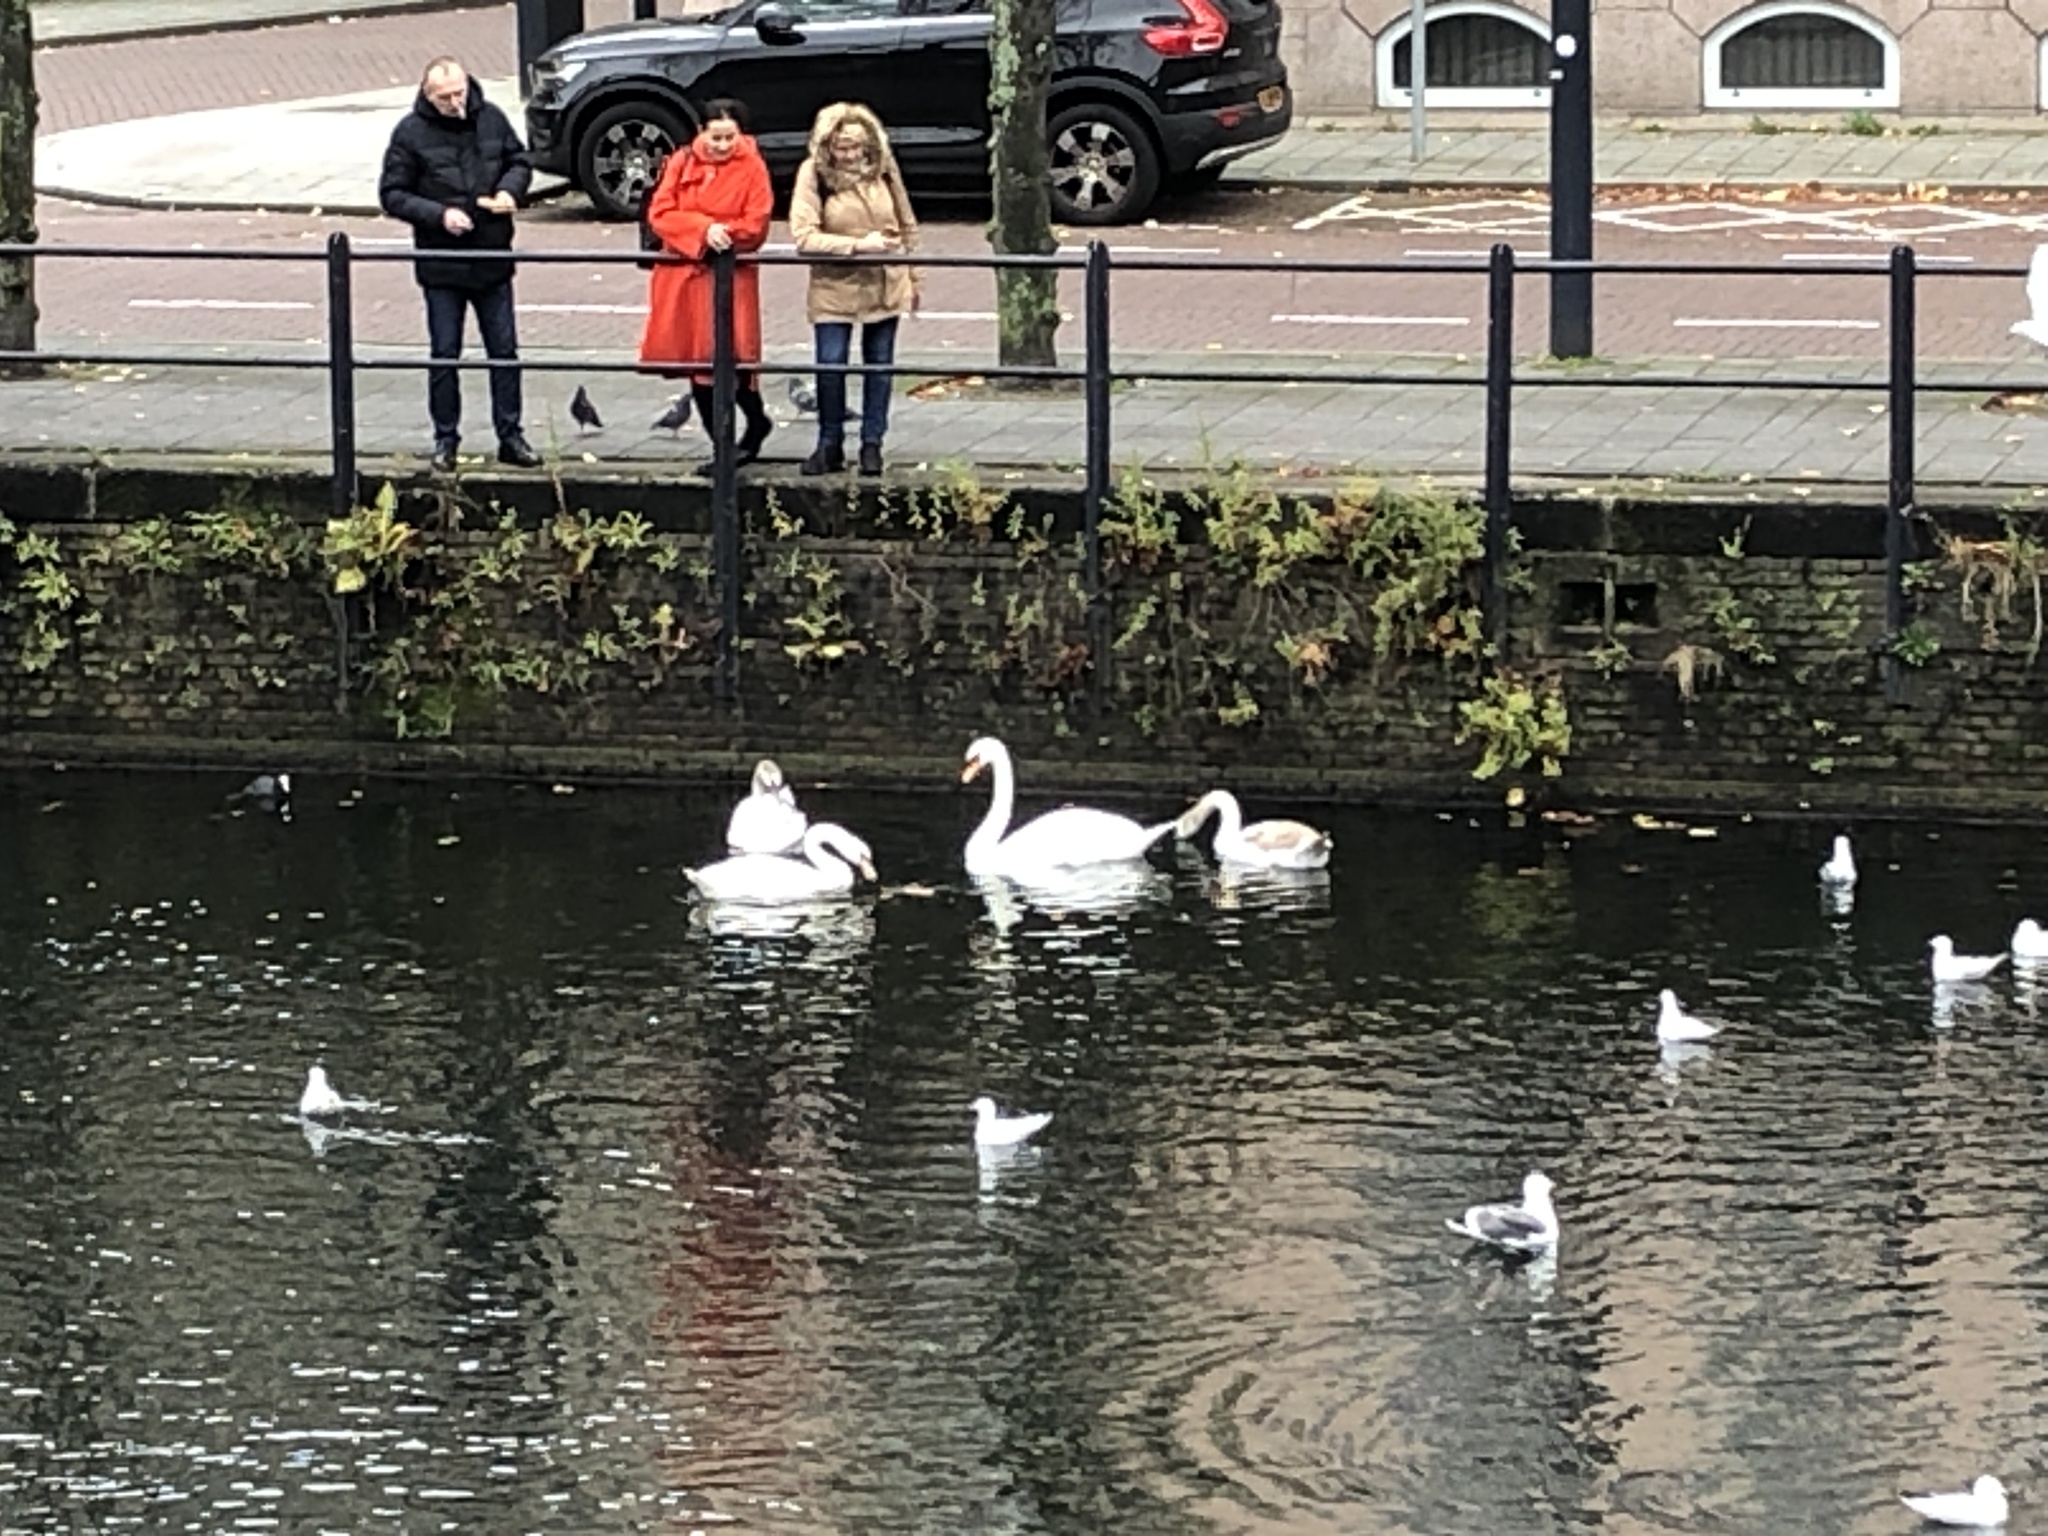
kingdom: Animalia
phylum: Chordata
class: Aves
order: Anseriformes
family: Anatidae
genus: Cygnus
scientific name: Cygnus olor
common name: Mute swan
